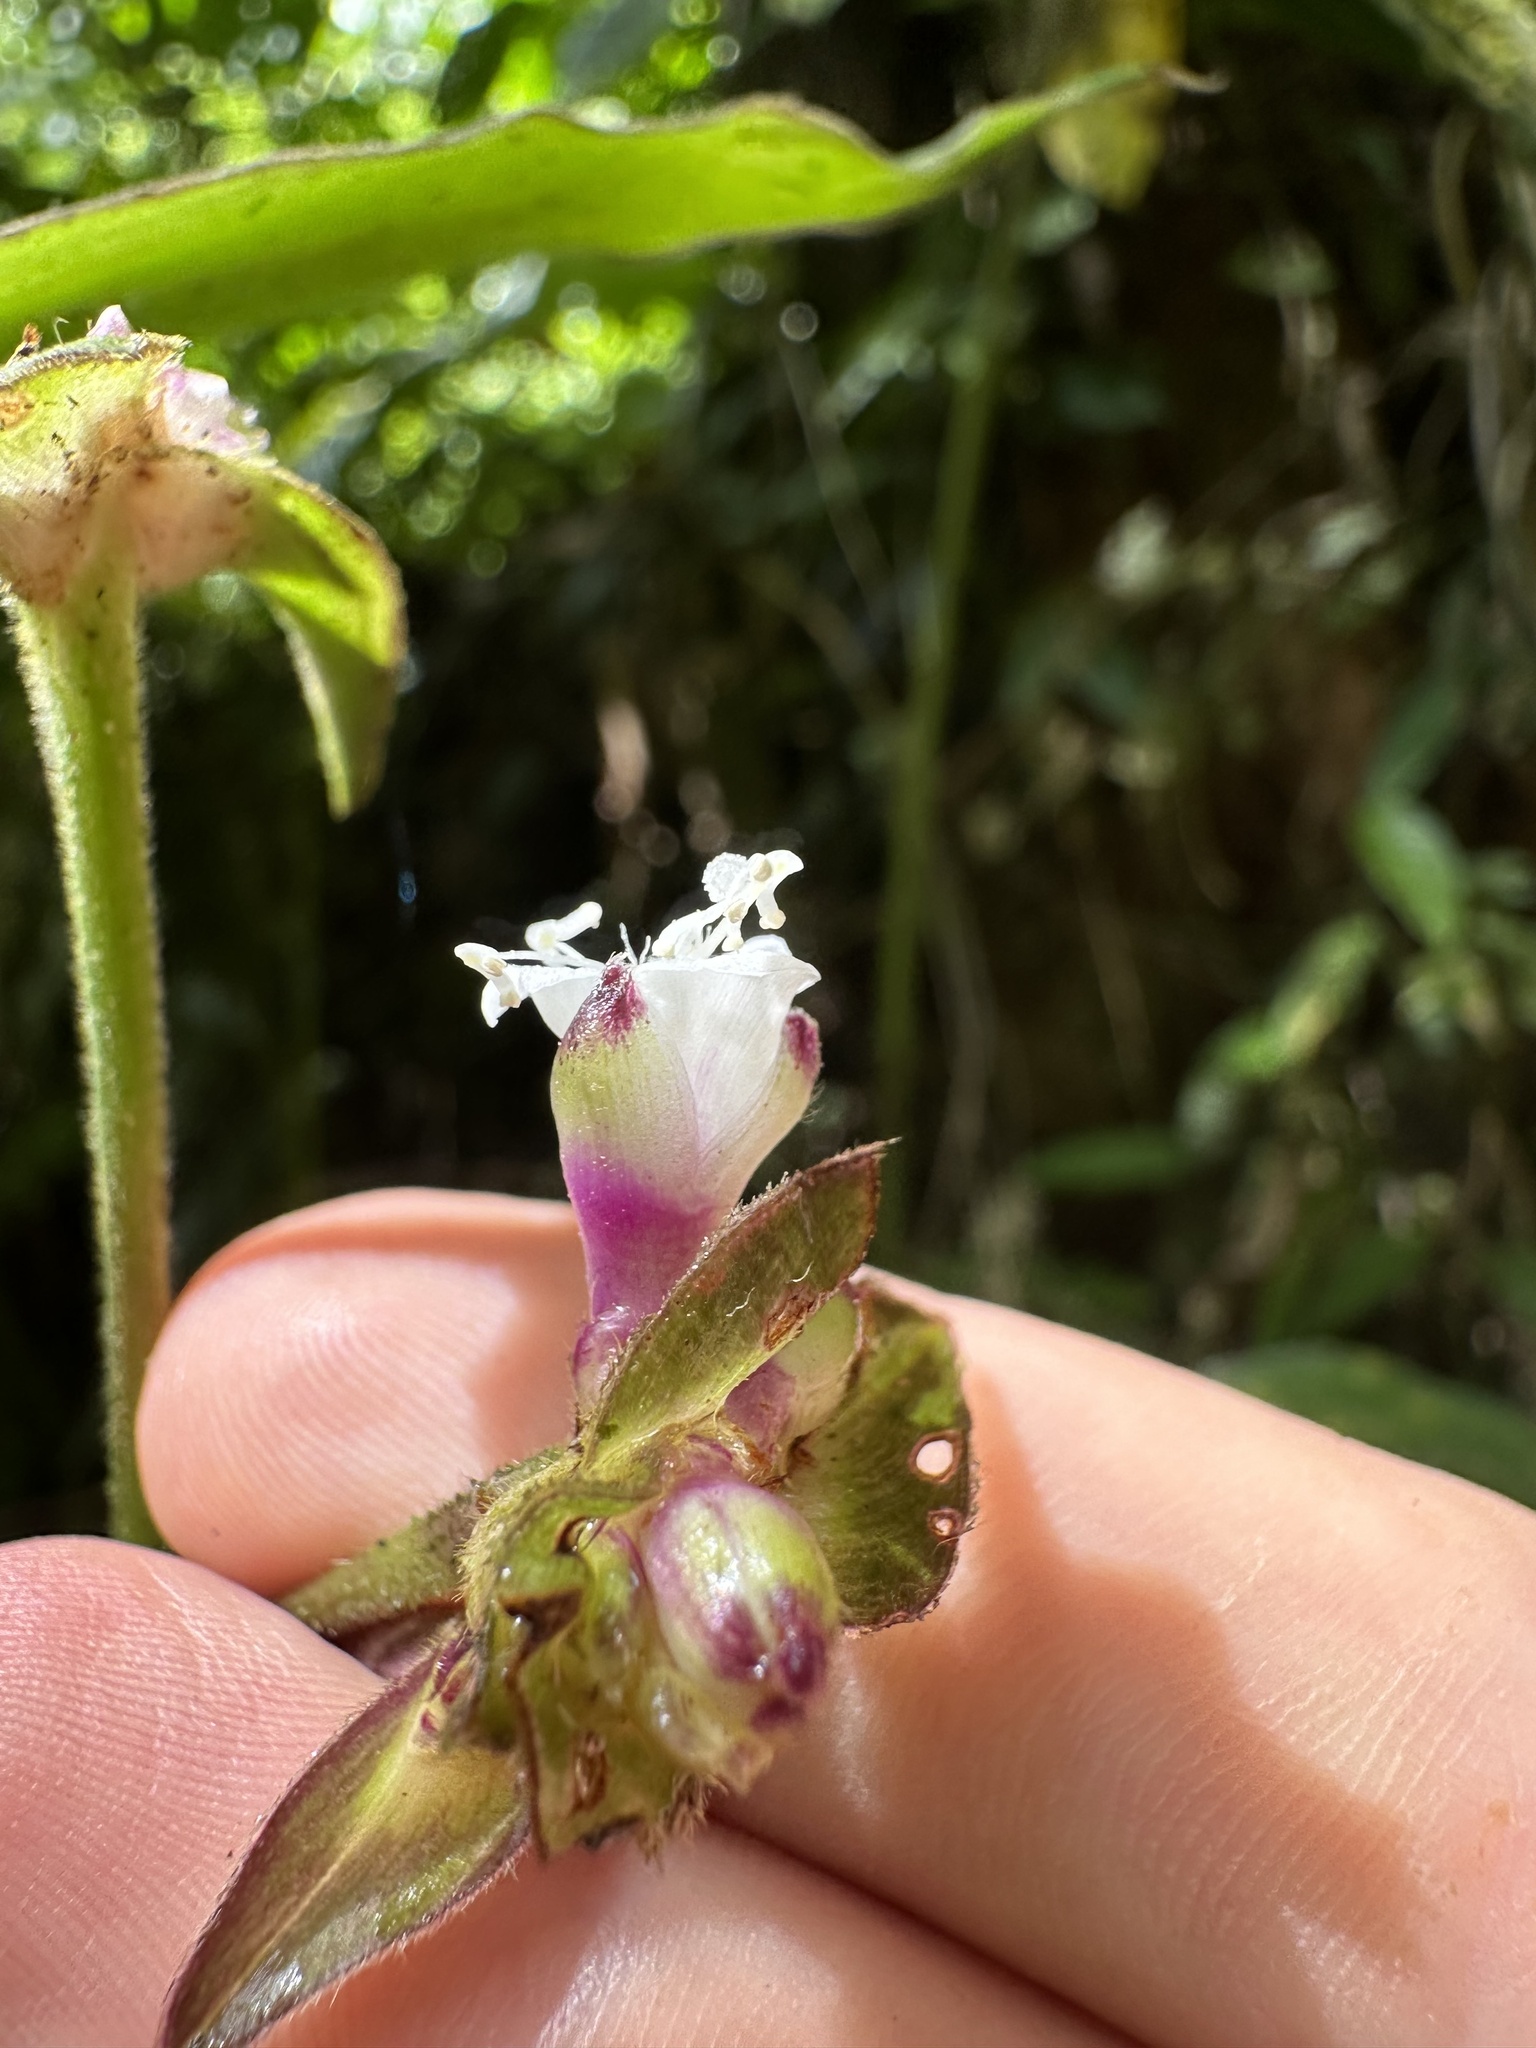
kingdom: Plantae
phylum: Tracheophyta
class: Liliopsida
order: Commelinales
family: Commelinaceae
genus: Tradescantia
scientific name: Tradescantia zanonia
